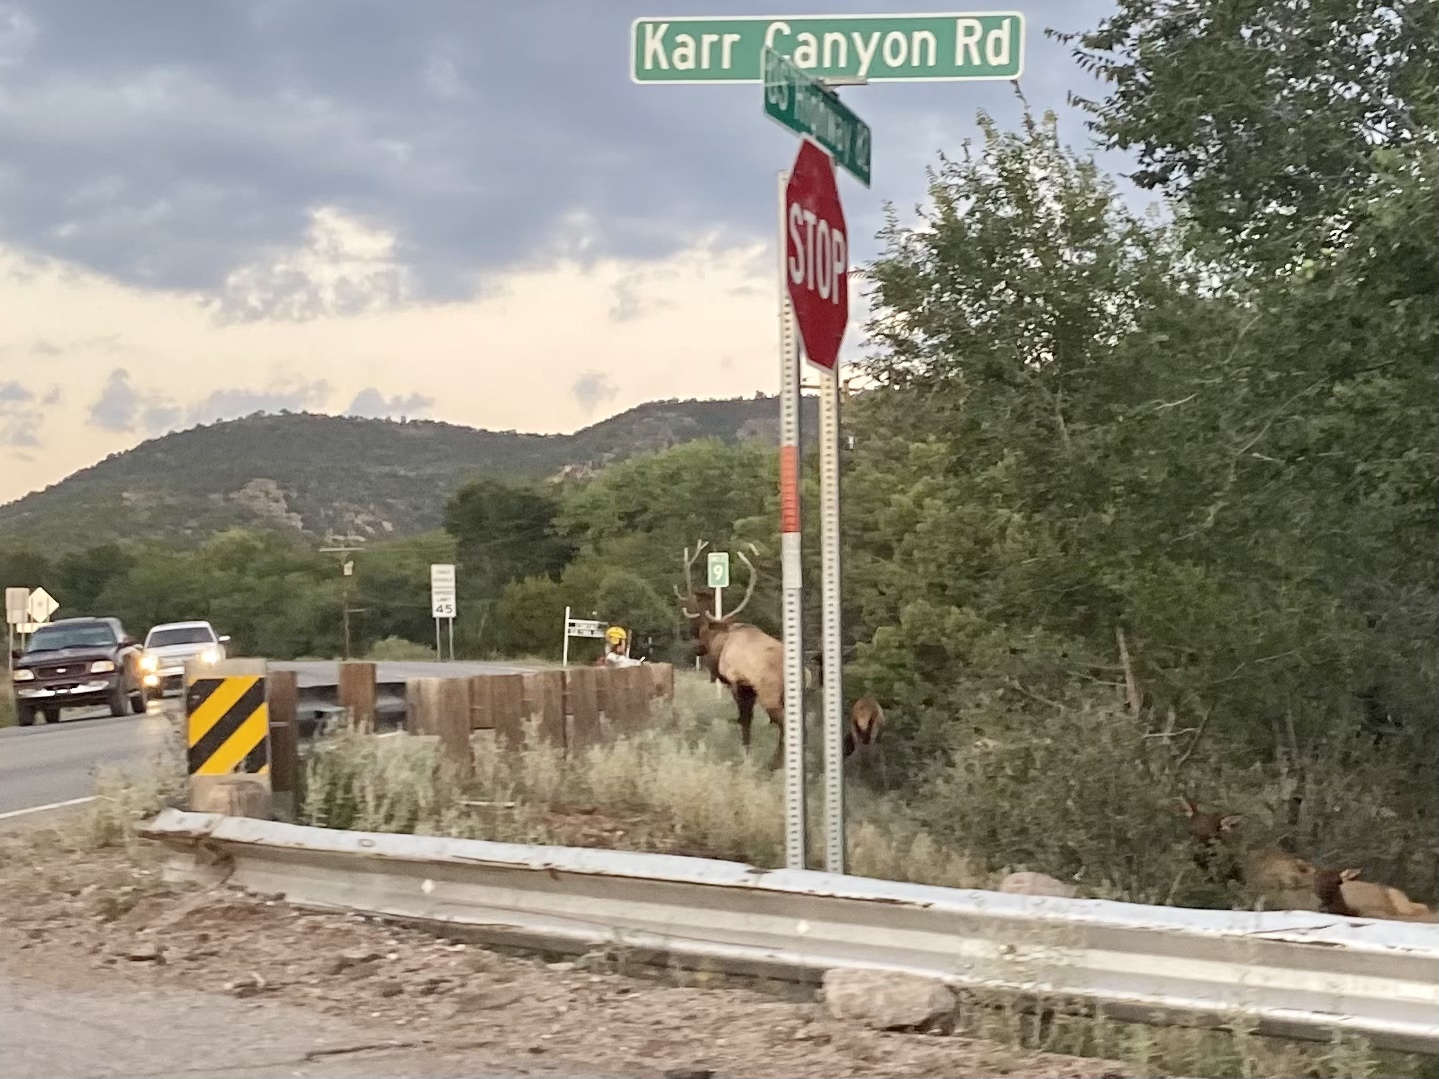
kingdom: Animalia
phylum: Chordata
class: Mammalia
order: Artiodactyla
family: Cervidae
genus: Cervus
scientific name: Cervus elaphus
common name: Red deer
